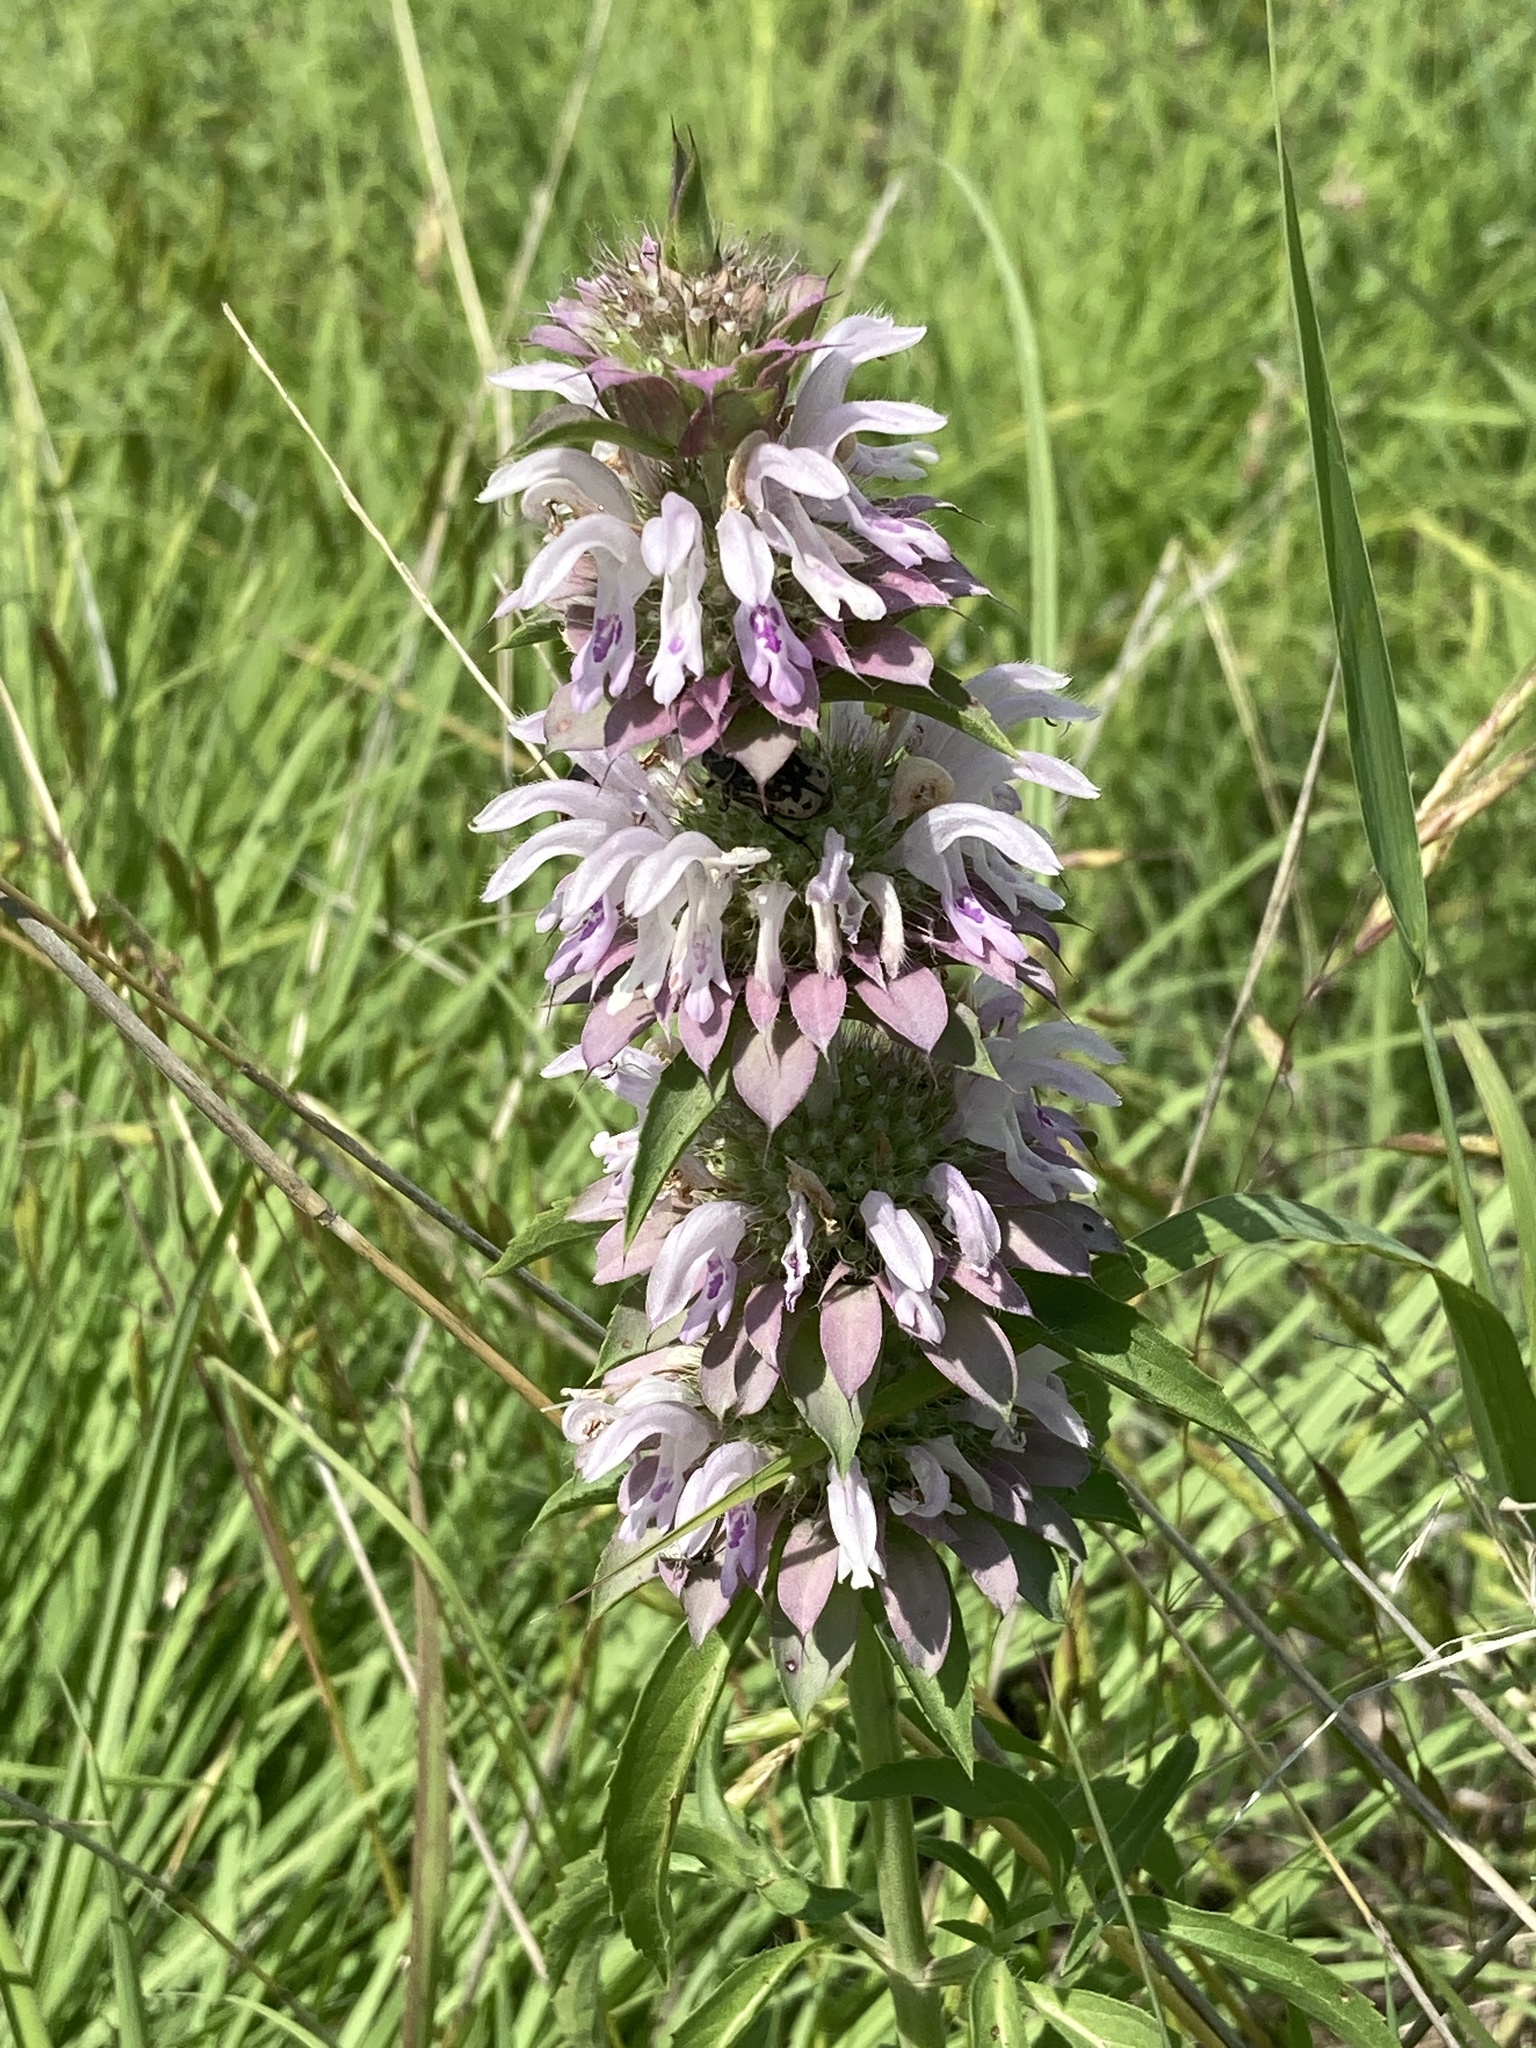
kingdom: Plantae
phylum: Tracheophyta
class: Magnoliopsida
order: Lamiales
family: Lamiaceae
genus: Monarda
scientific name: Monarda citriodora
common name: Lemon beebalm
